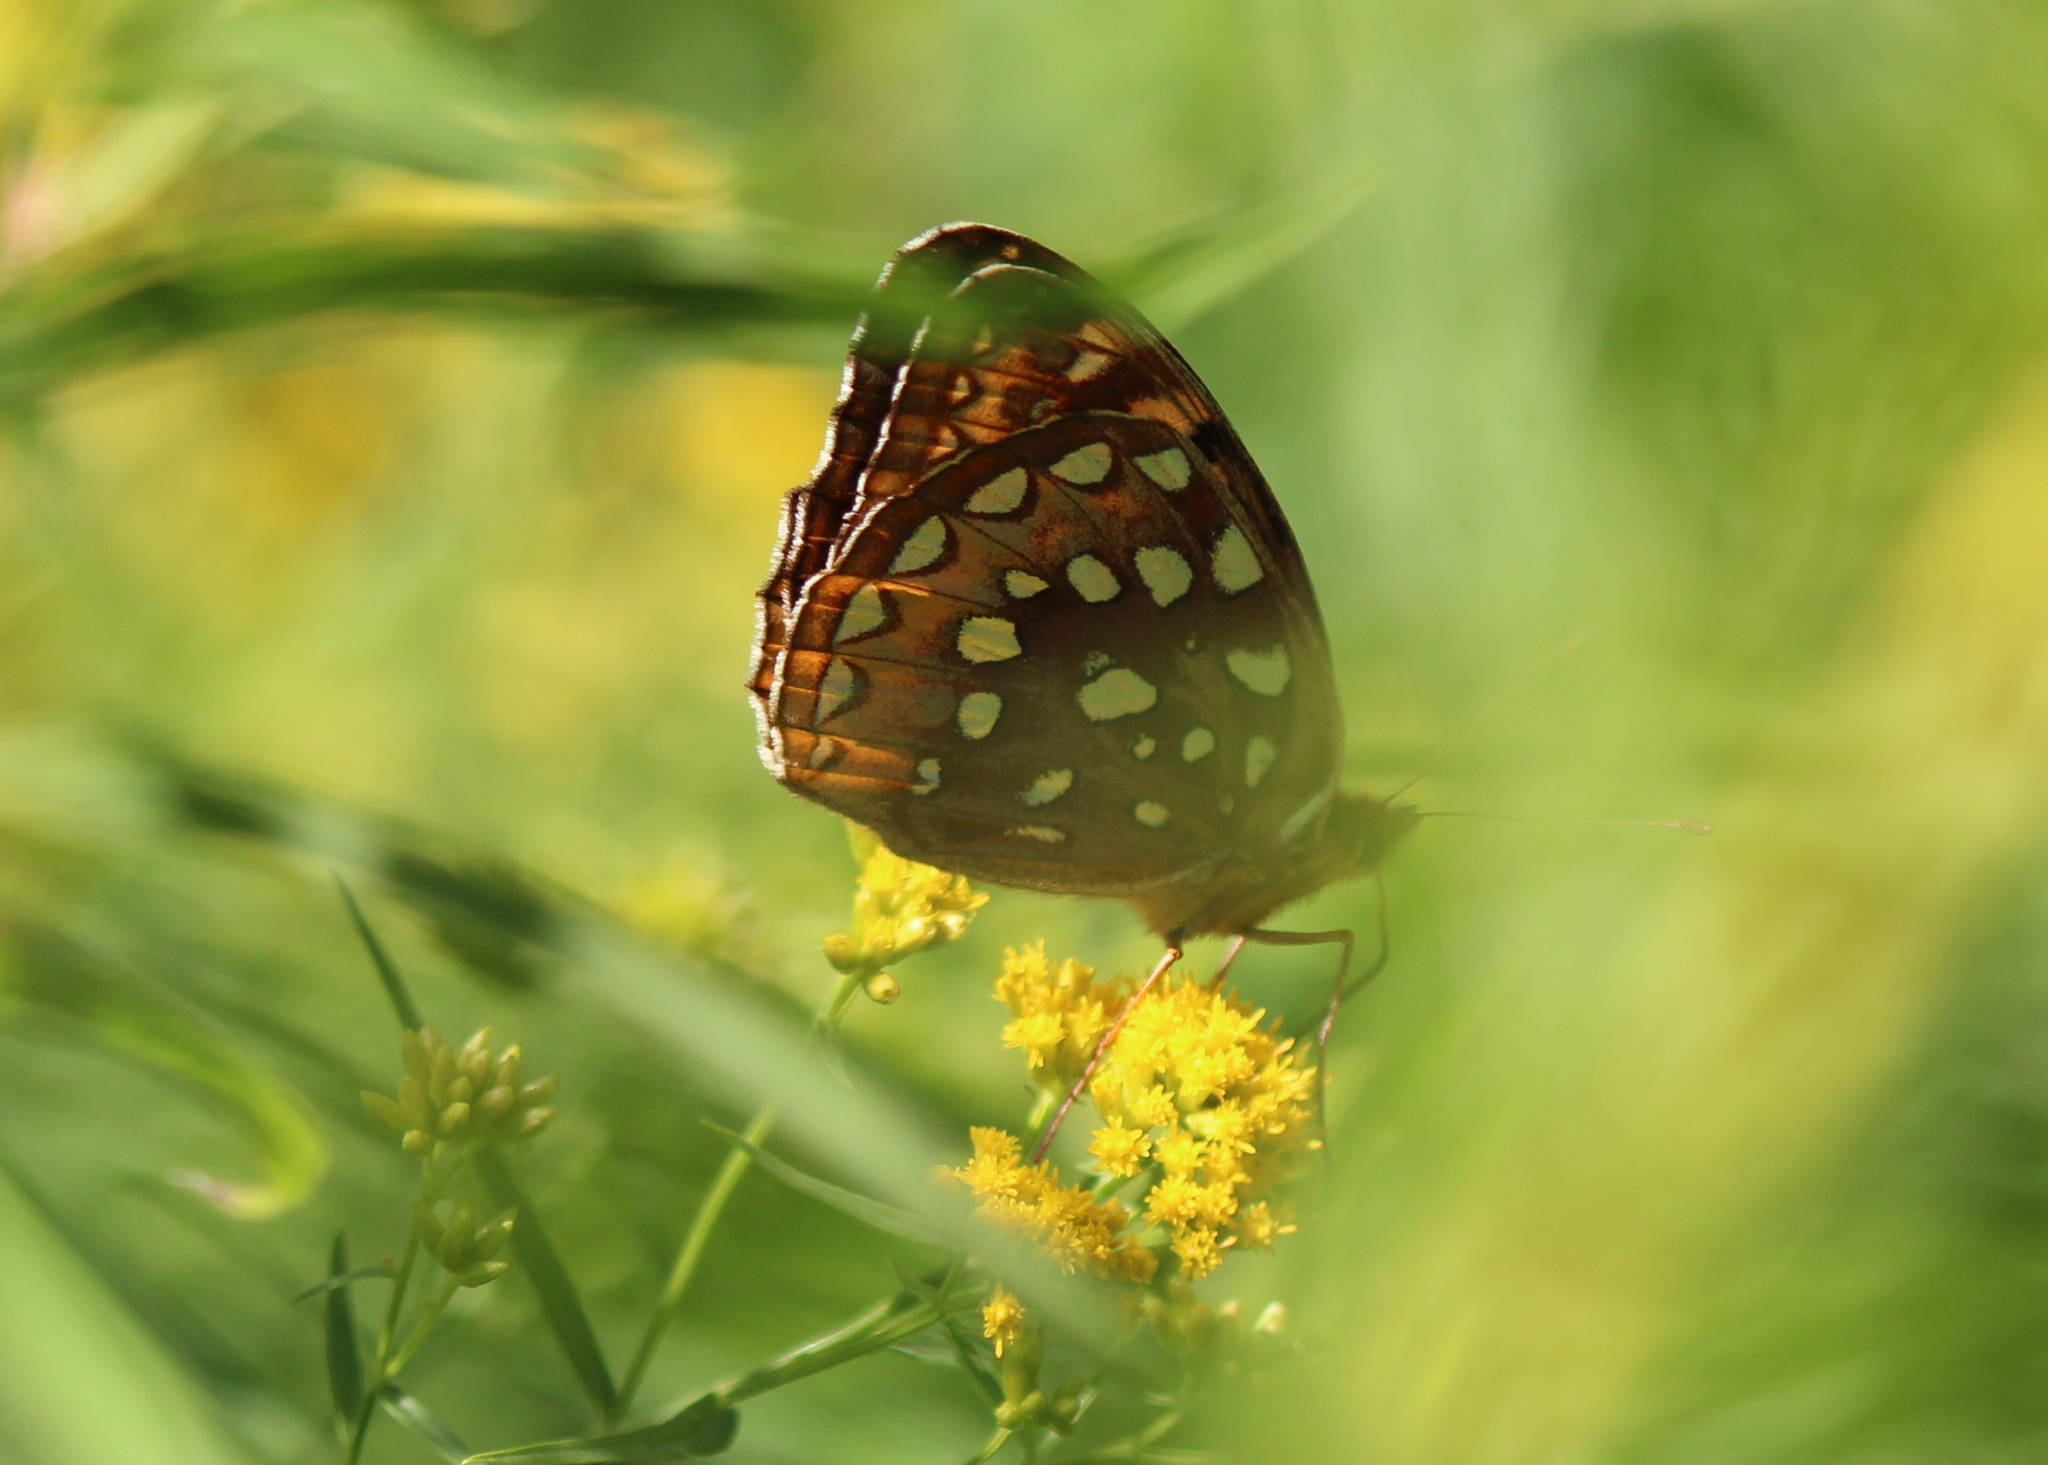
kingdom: Animalia
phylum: Arthropoda
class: Insecta
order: Lepidoptera
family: Nymphalidae
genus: Speyeria
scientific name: Speyeria cybele
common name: Great spangled fritillary
